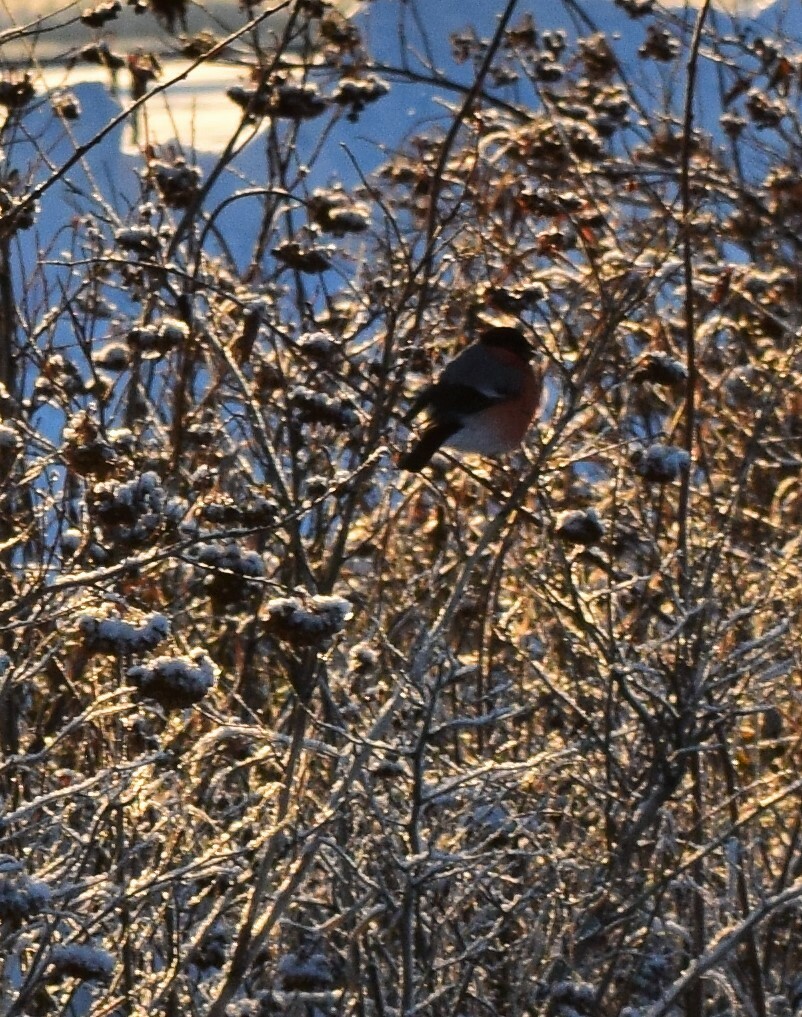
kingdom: Animalia
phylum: Chordata
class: Aves
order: Passeriformes
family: Fringillidae
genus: Pyrrhula
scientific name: Pyrrhula pyrrhula
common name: Eurasian bullfinch
